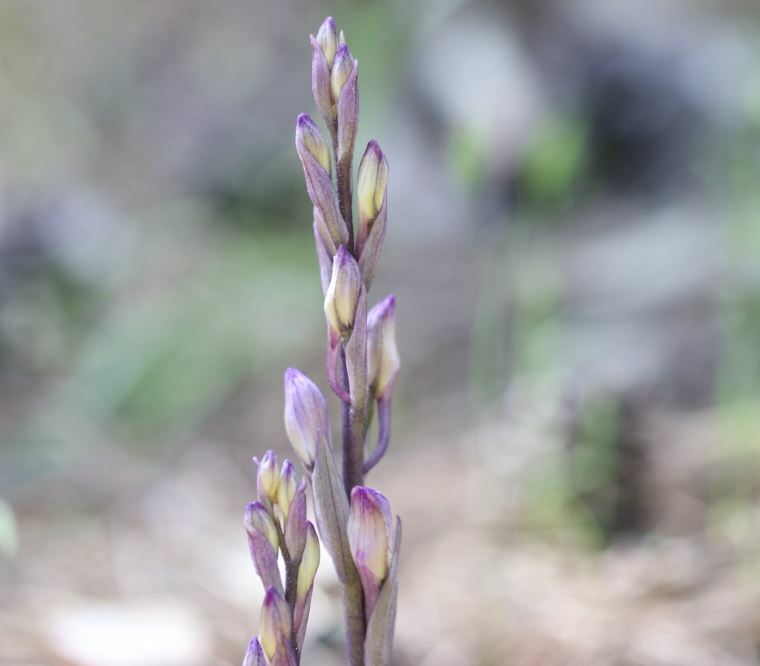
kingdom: Plantae
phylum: Tracheophyta
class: Liliopsida
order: Asparagales
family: Orchidaceae
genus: Limodorum
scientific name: Limodorum abortivum
